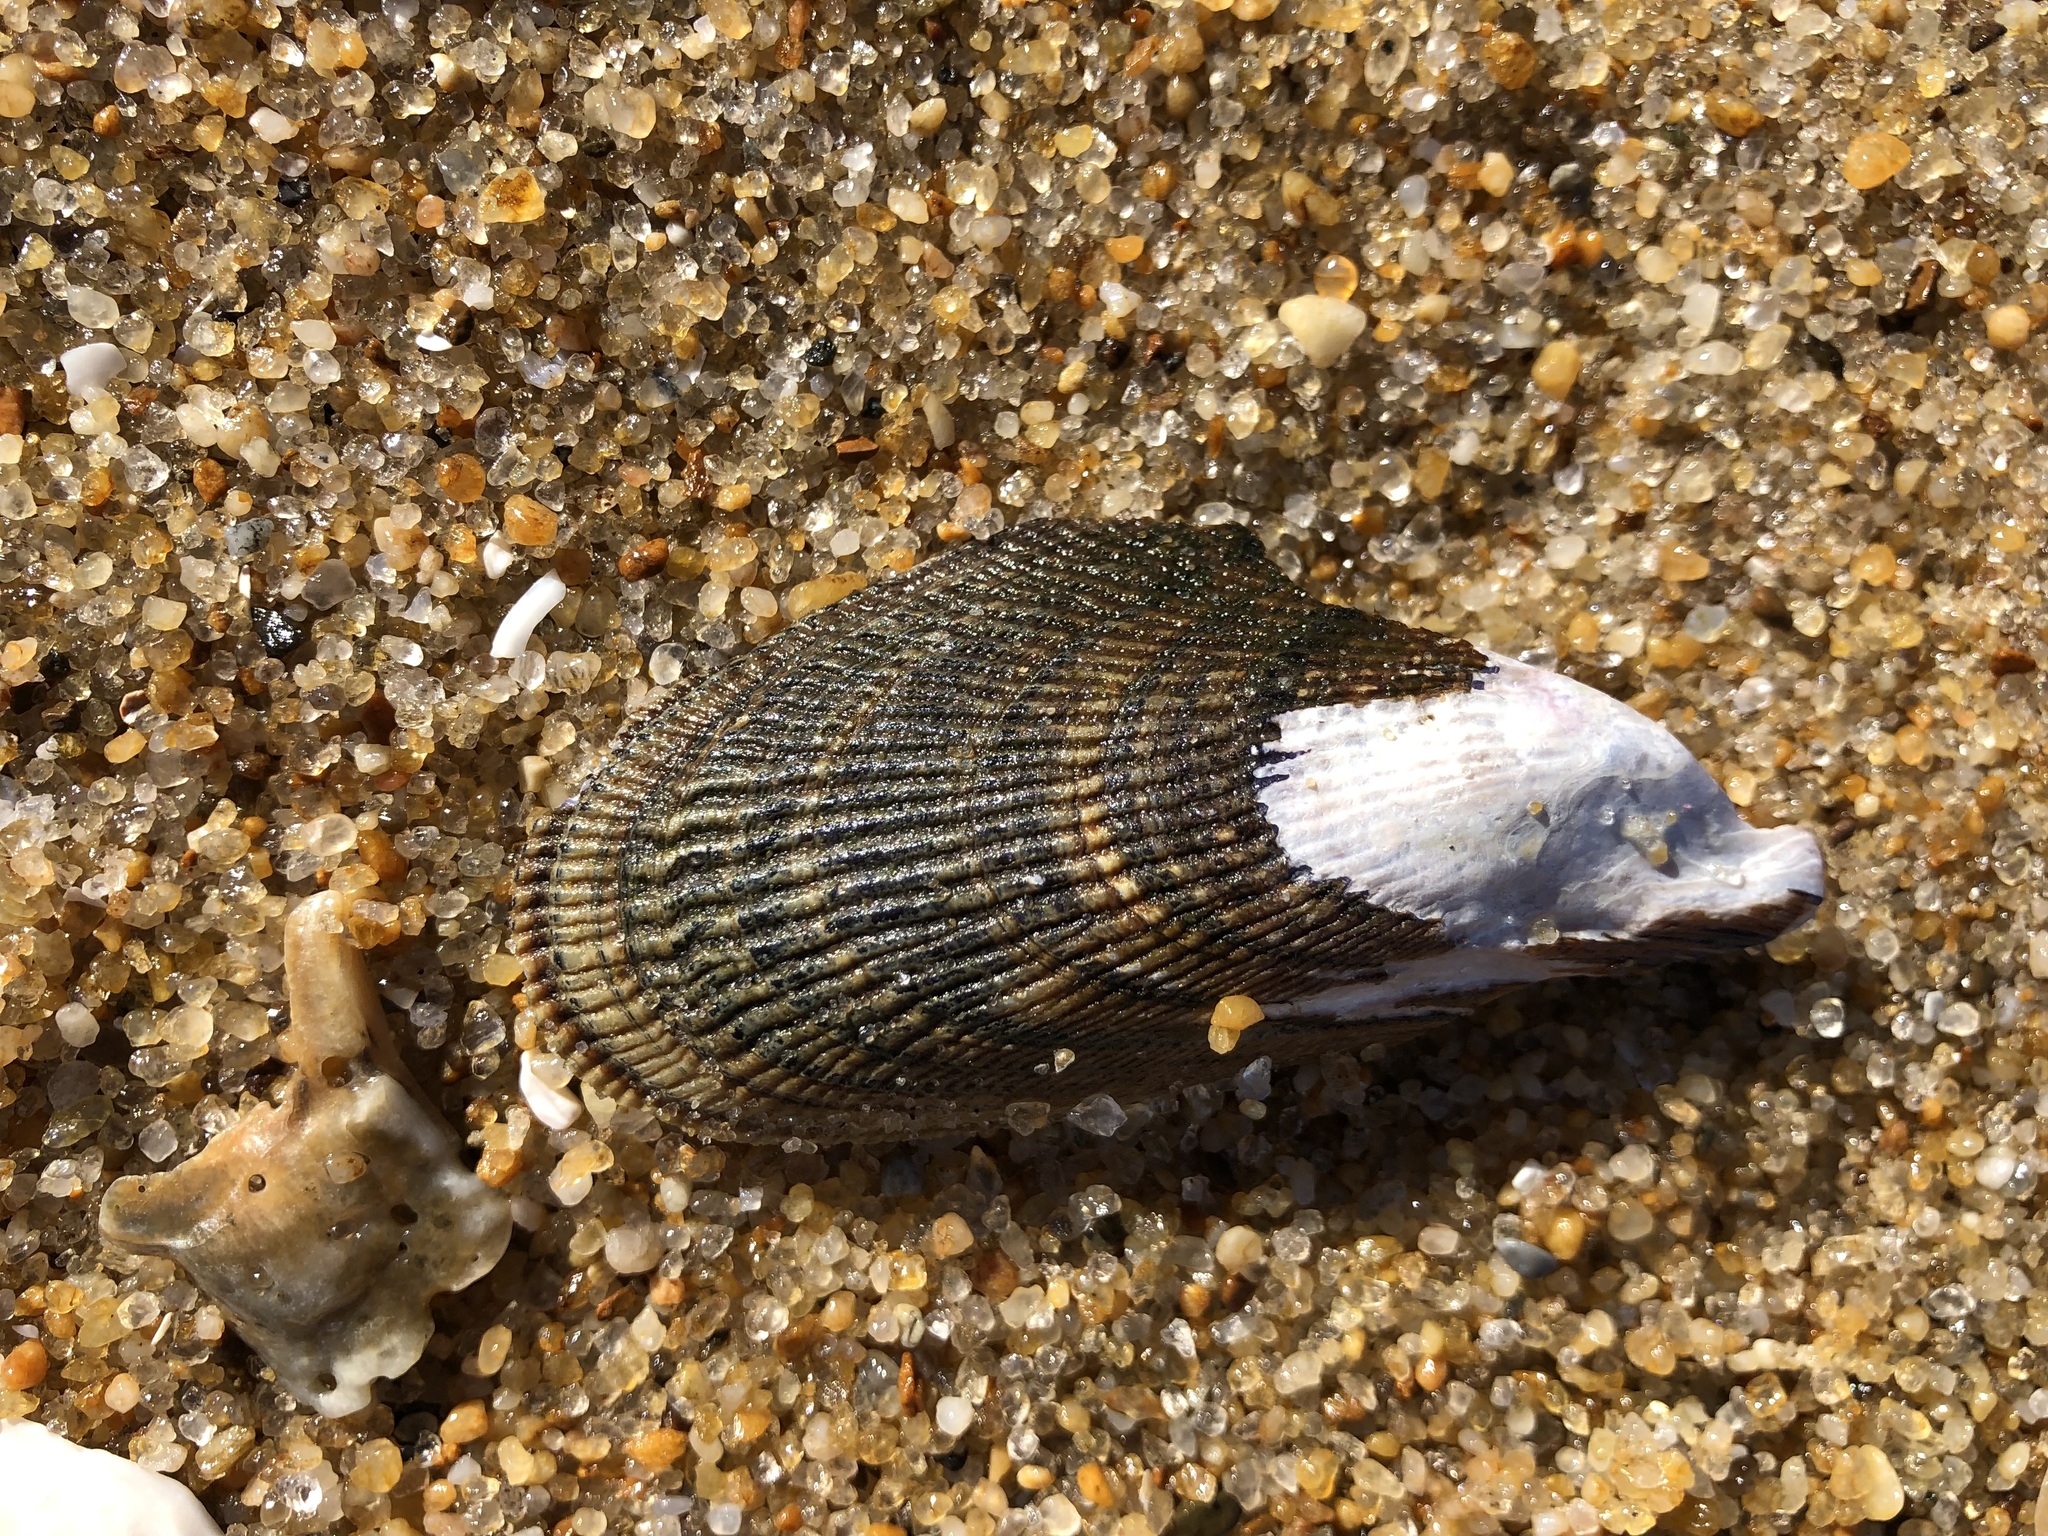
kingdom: Animalia
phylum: Mollusca
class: Bivalvia
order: Mytilida
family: Mytilidae
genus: Geukensia
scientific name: Geukensia demissa
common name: Ribbed mussel
